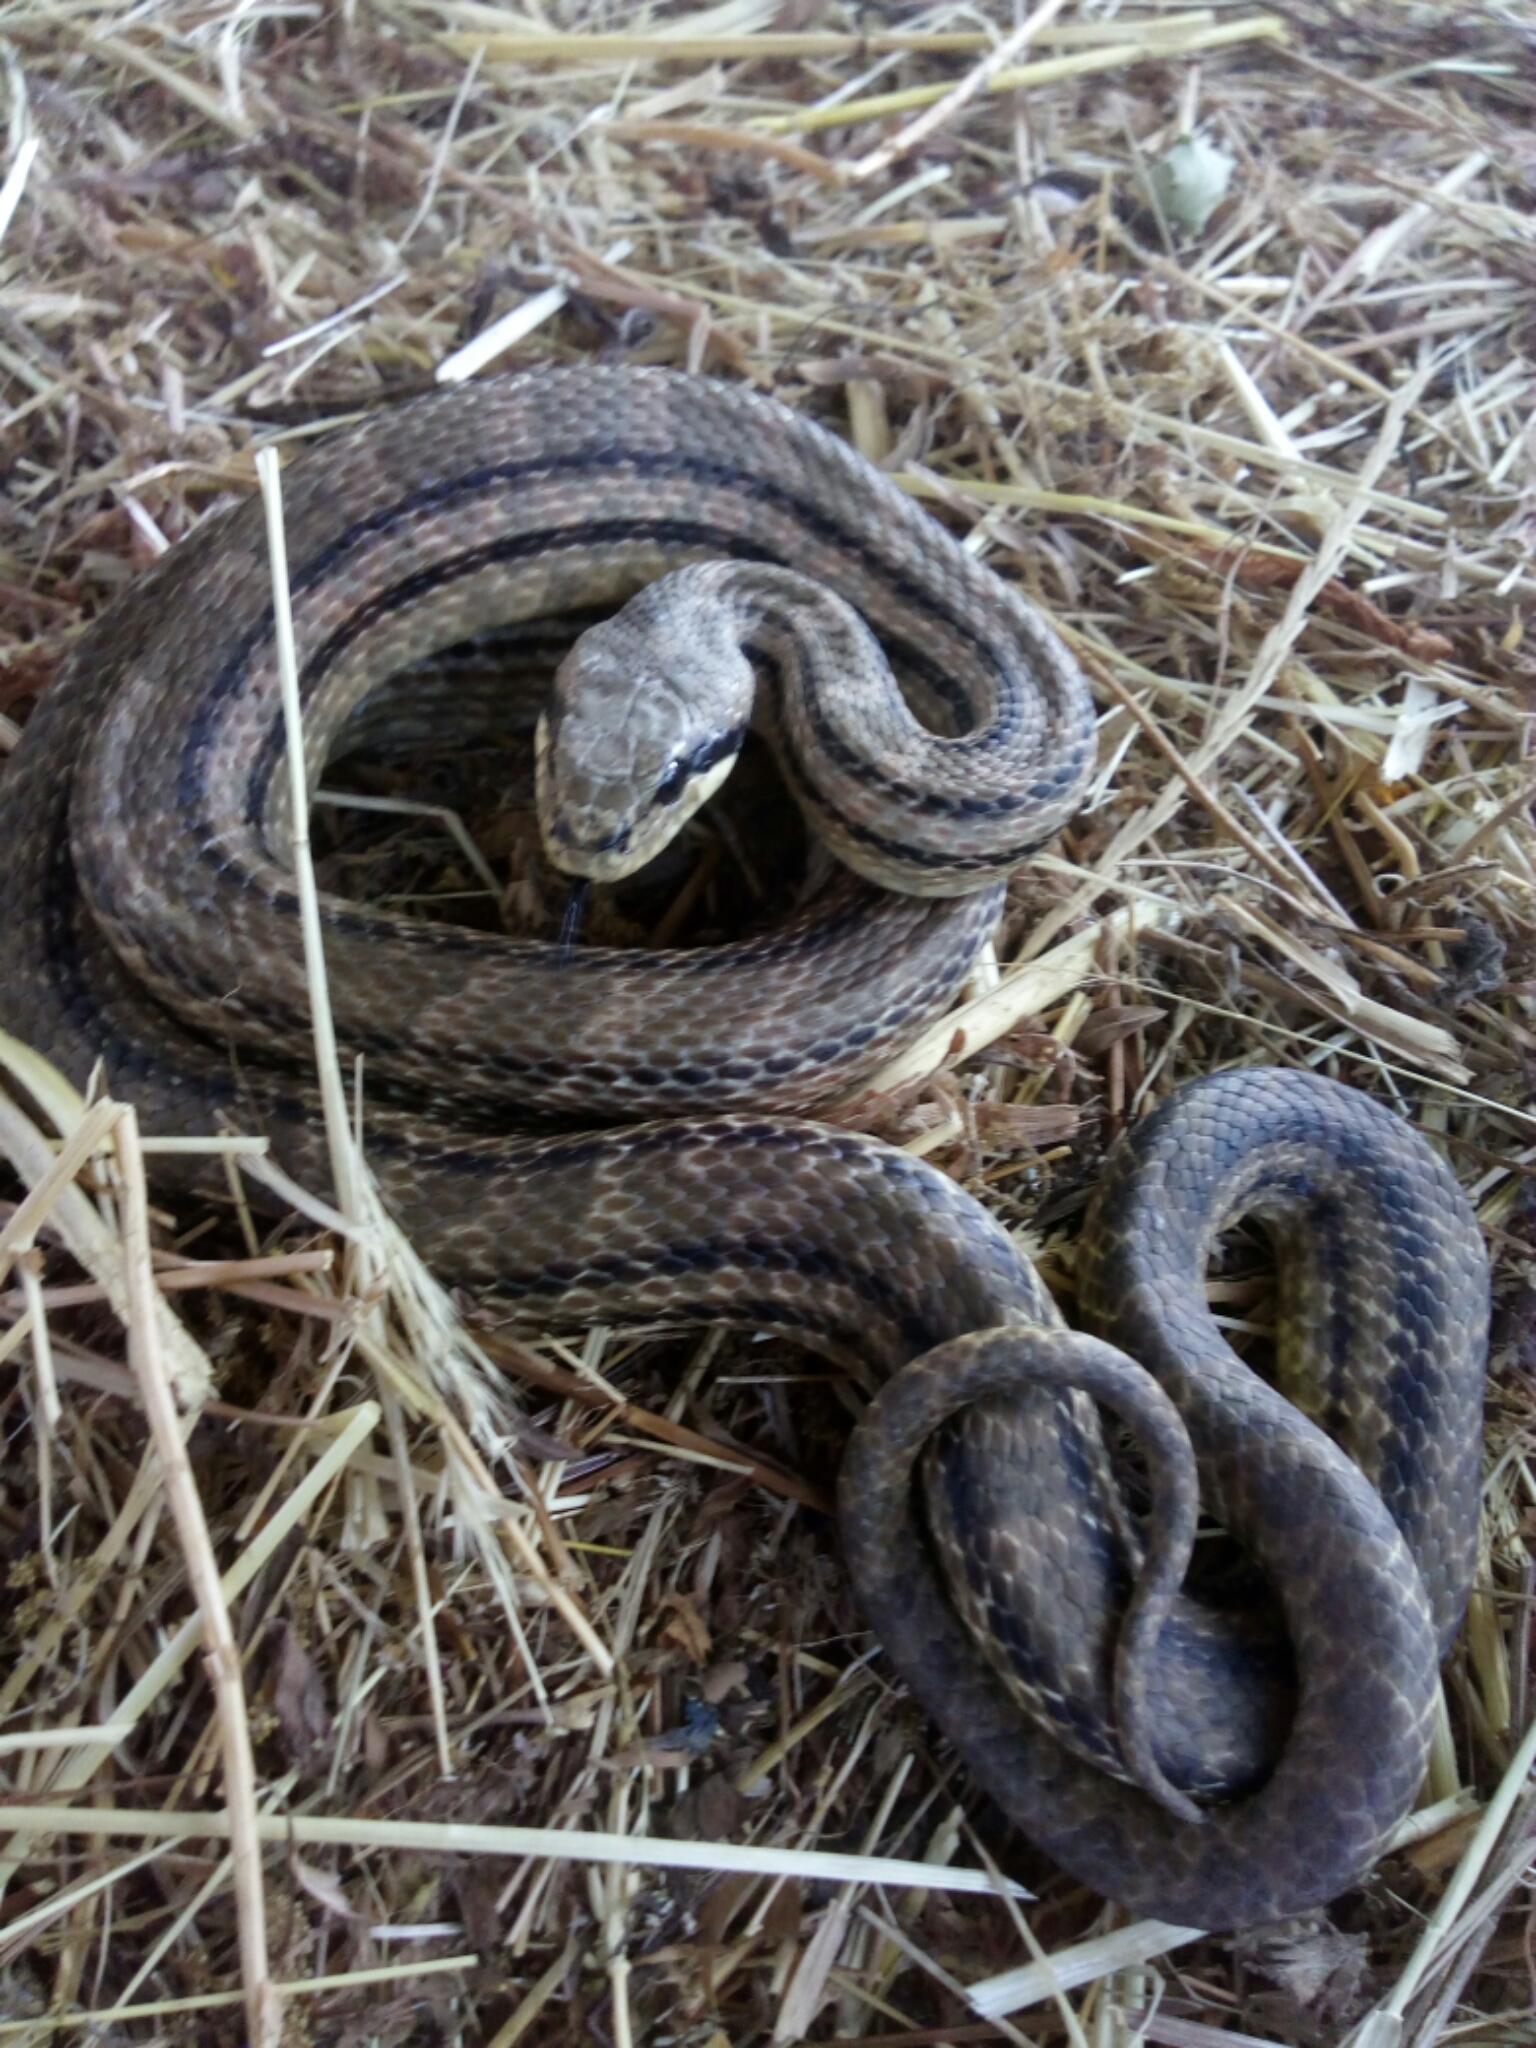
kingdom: Animalia
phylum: Chordata
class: Squamata
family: Colubridae
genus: Elaphe
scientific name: Elaphe quatuorlineata
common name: Four-lined snake
